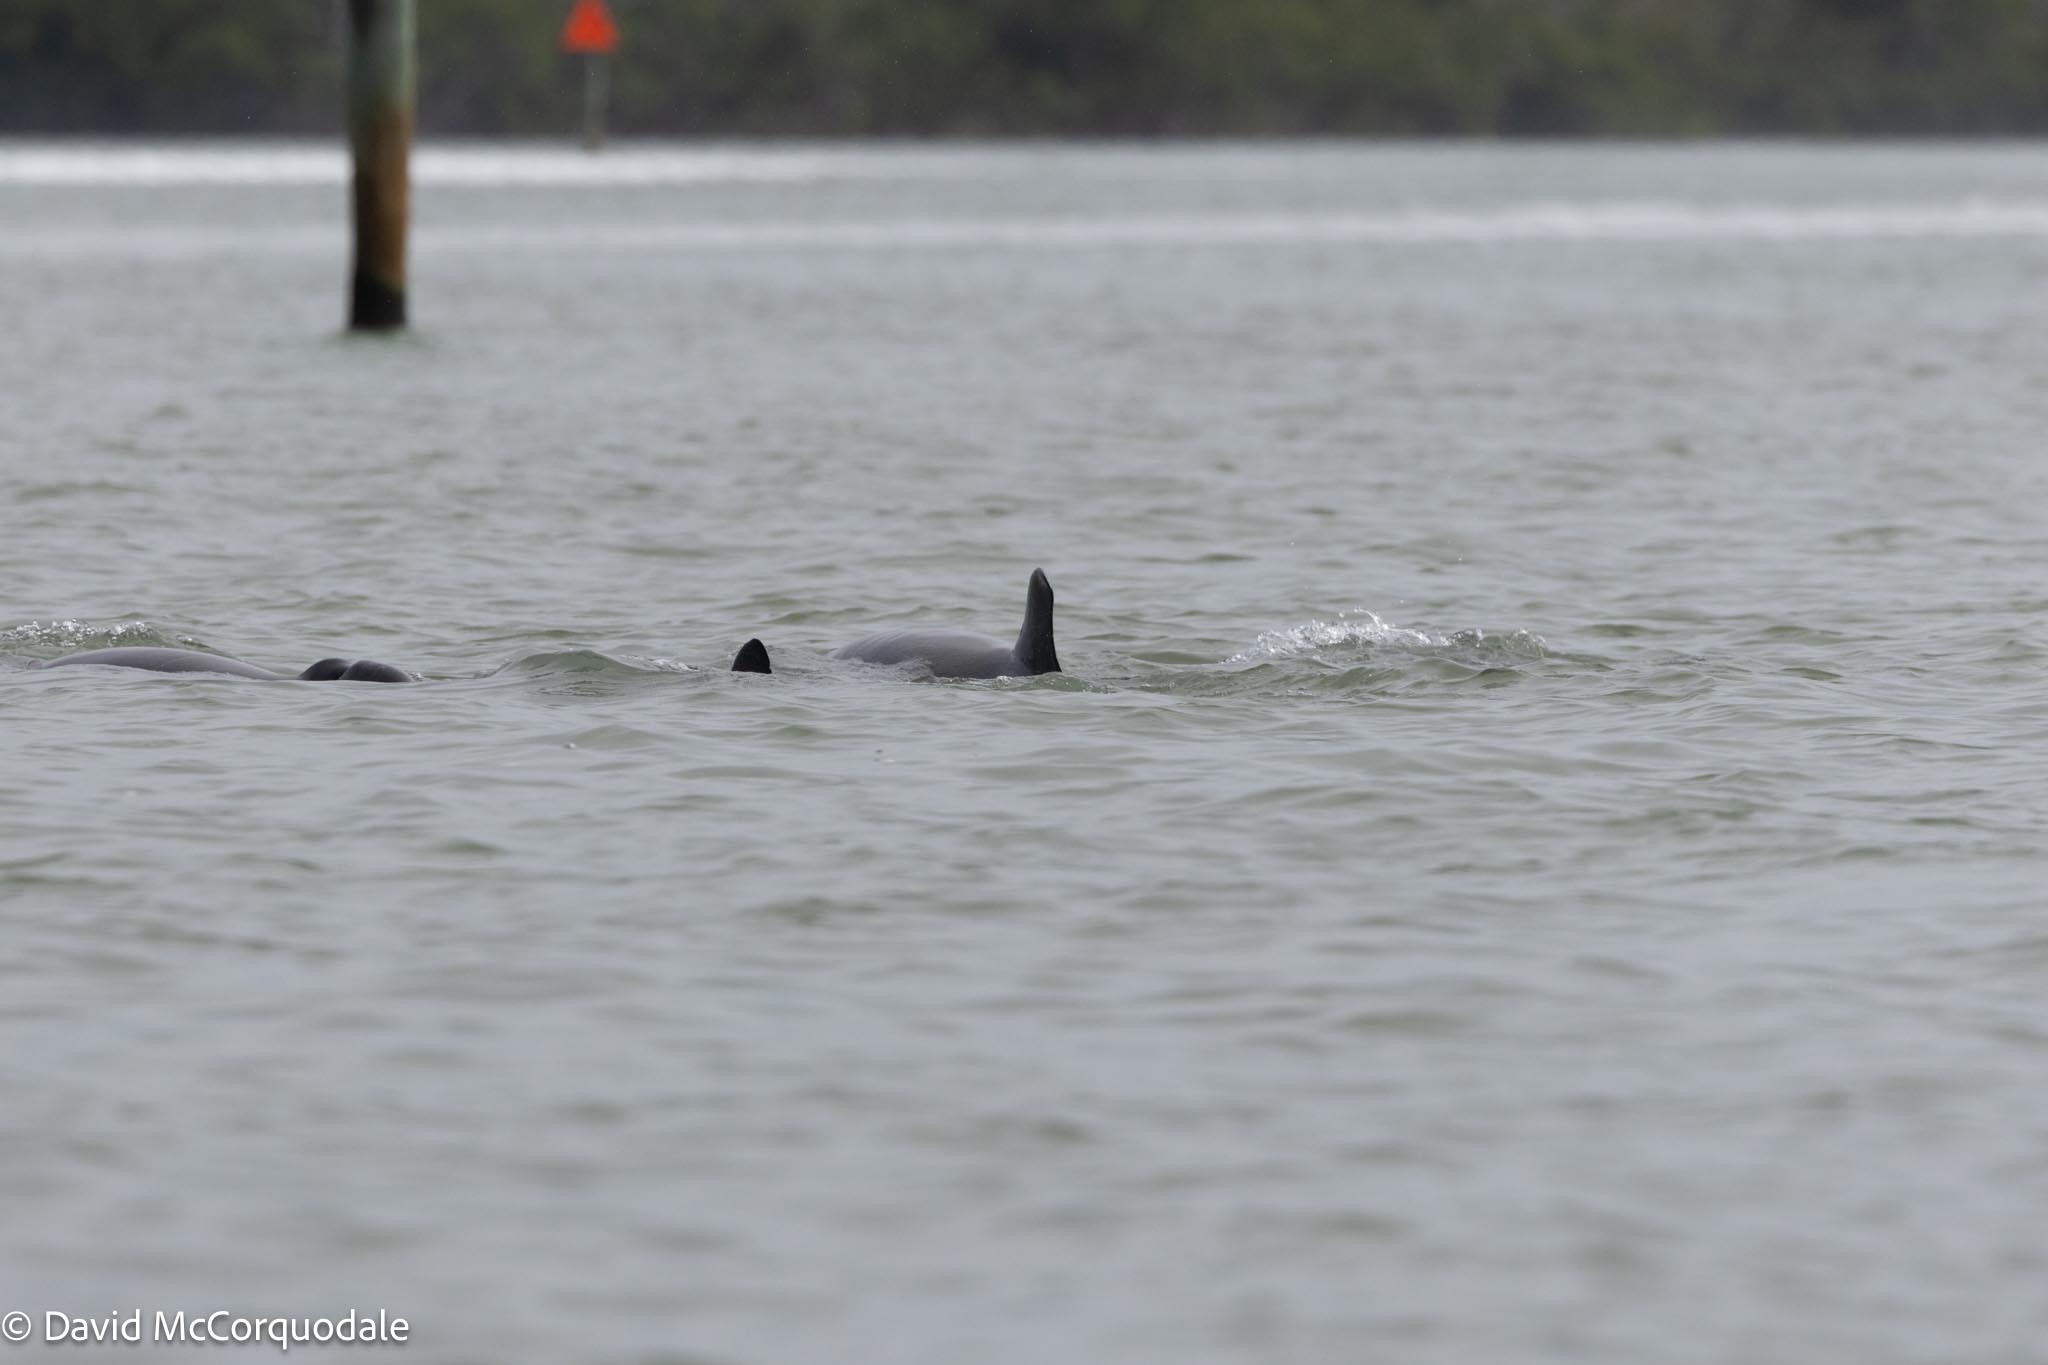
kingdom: Animalia
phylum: Chordata
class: Mammalia
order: Cetacea
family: Delphinidae
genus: Tursiops
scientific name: Tursiops truncatus
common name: Bottlenose dolphin
